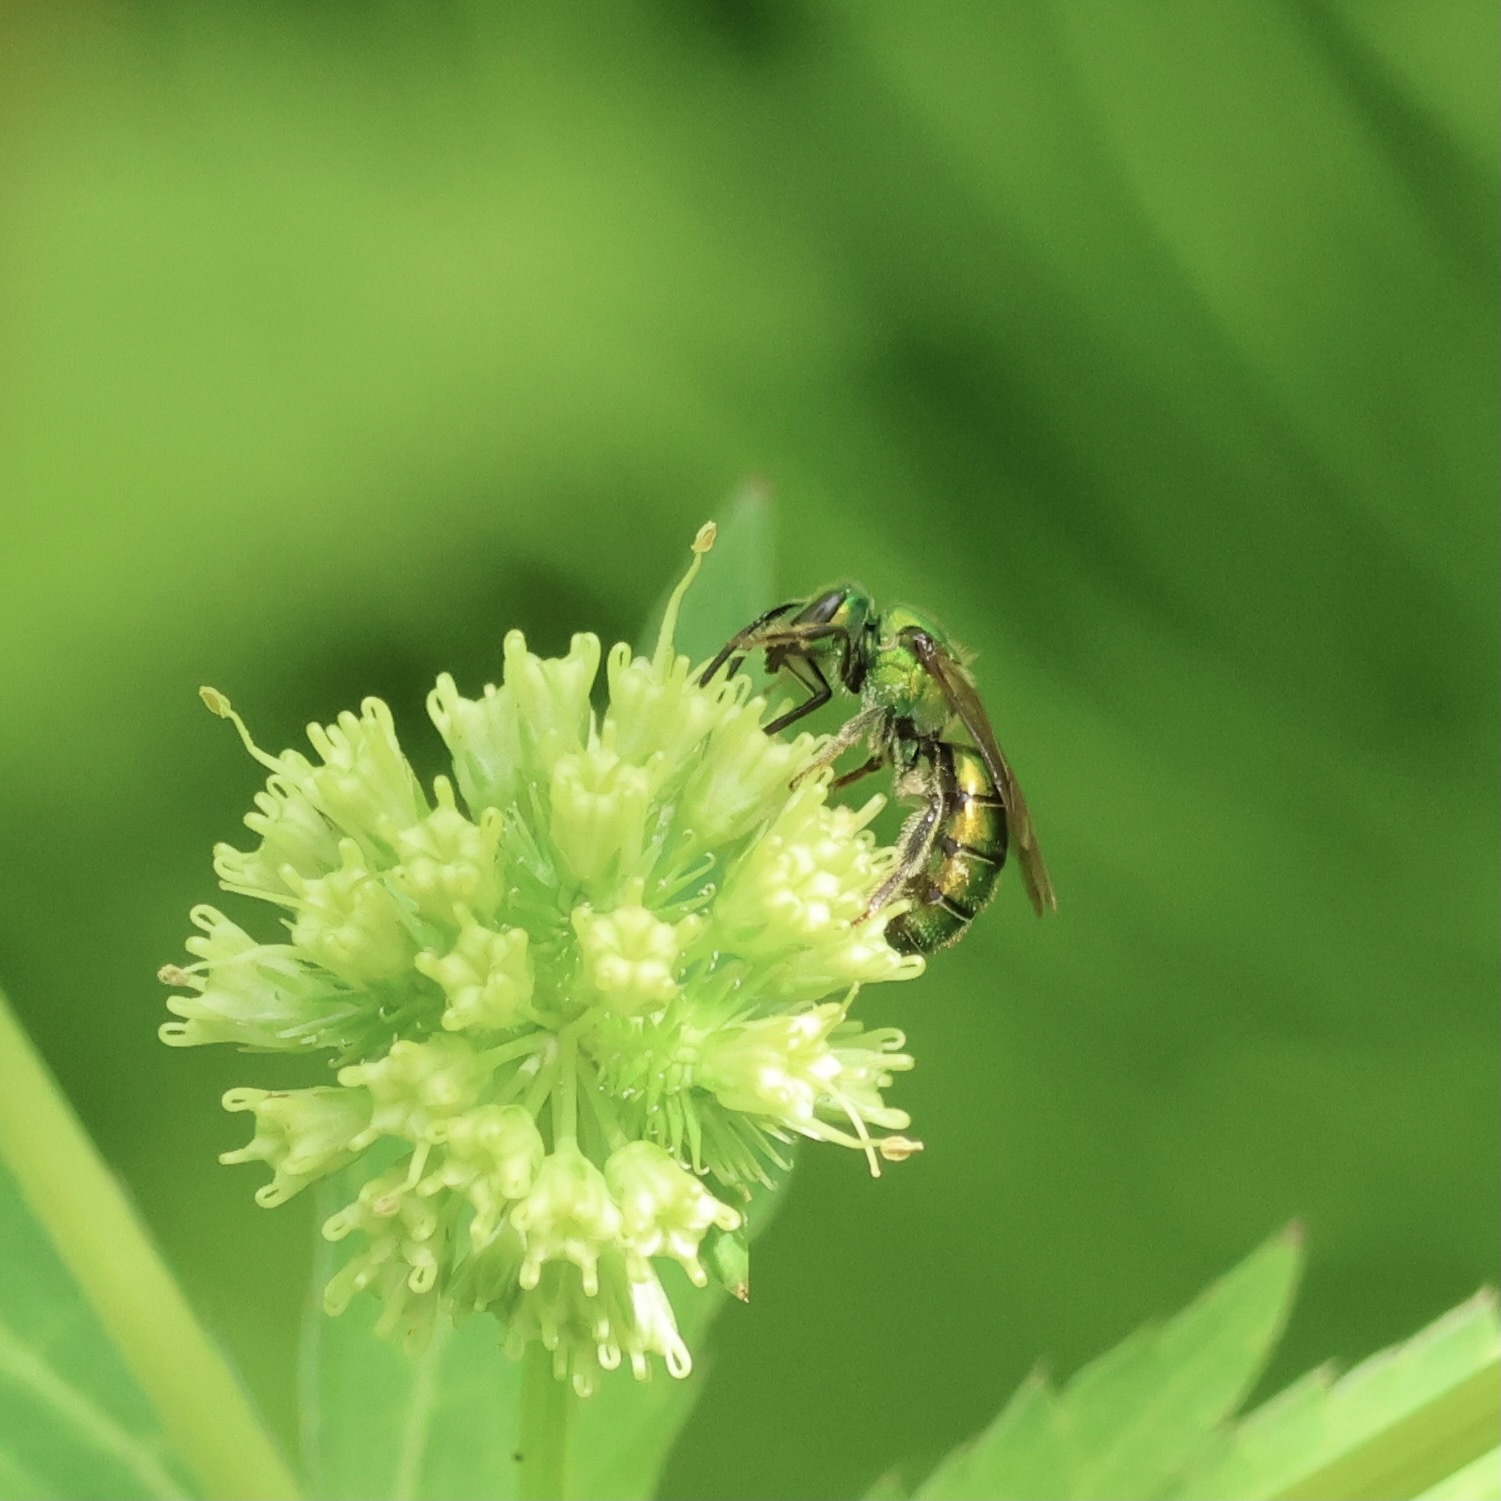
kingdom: Animalia
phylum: Arthropoda
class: Insecta
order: Hymenoptera
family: Halictidae
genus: Augochlora
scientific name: Augochlora pura
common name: Pure green sweat bee
